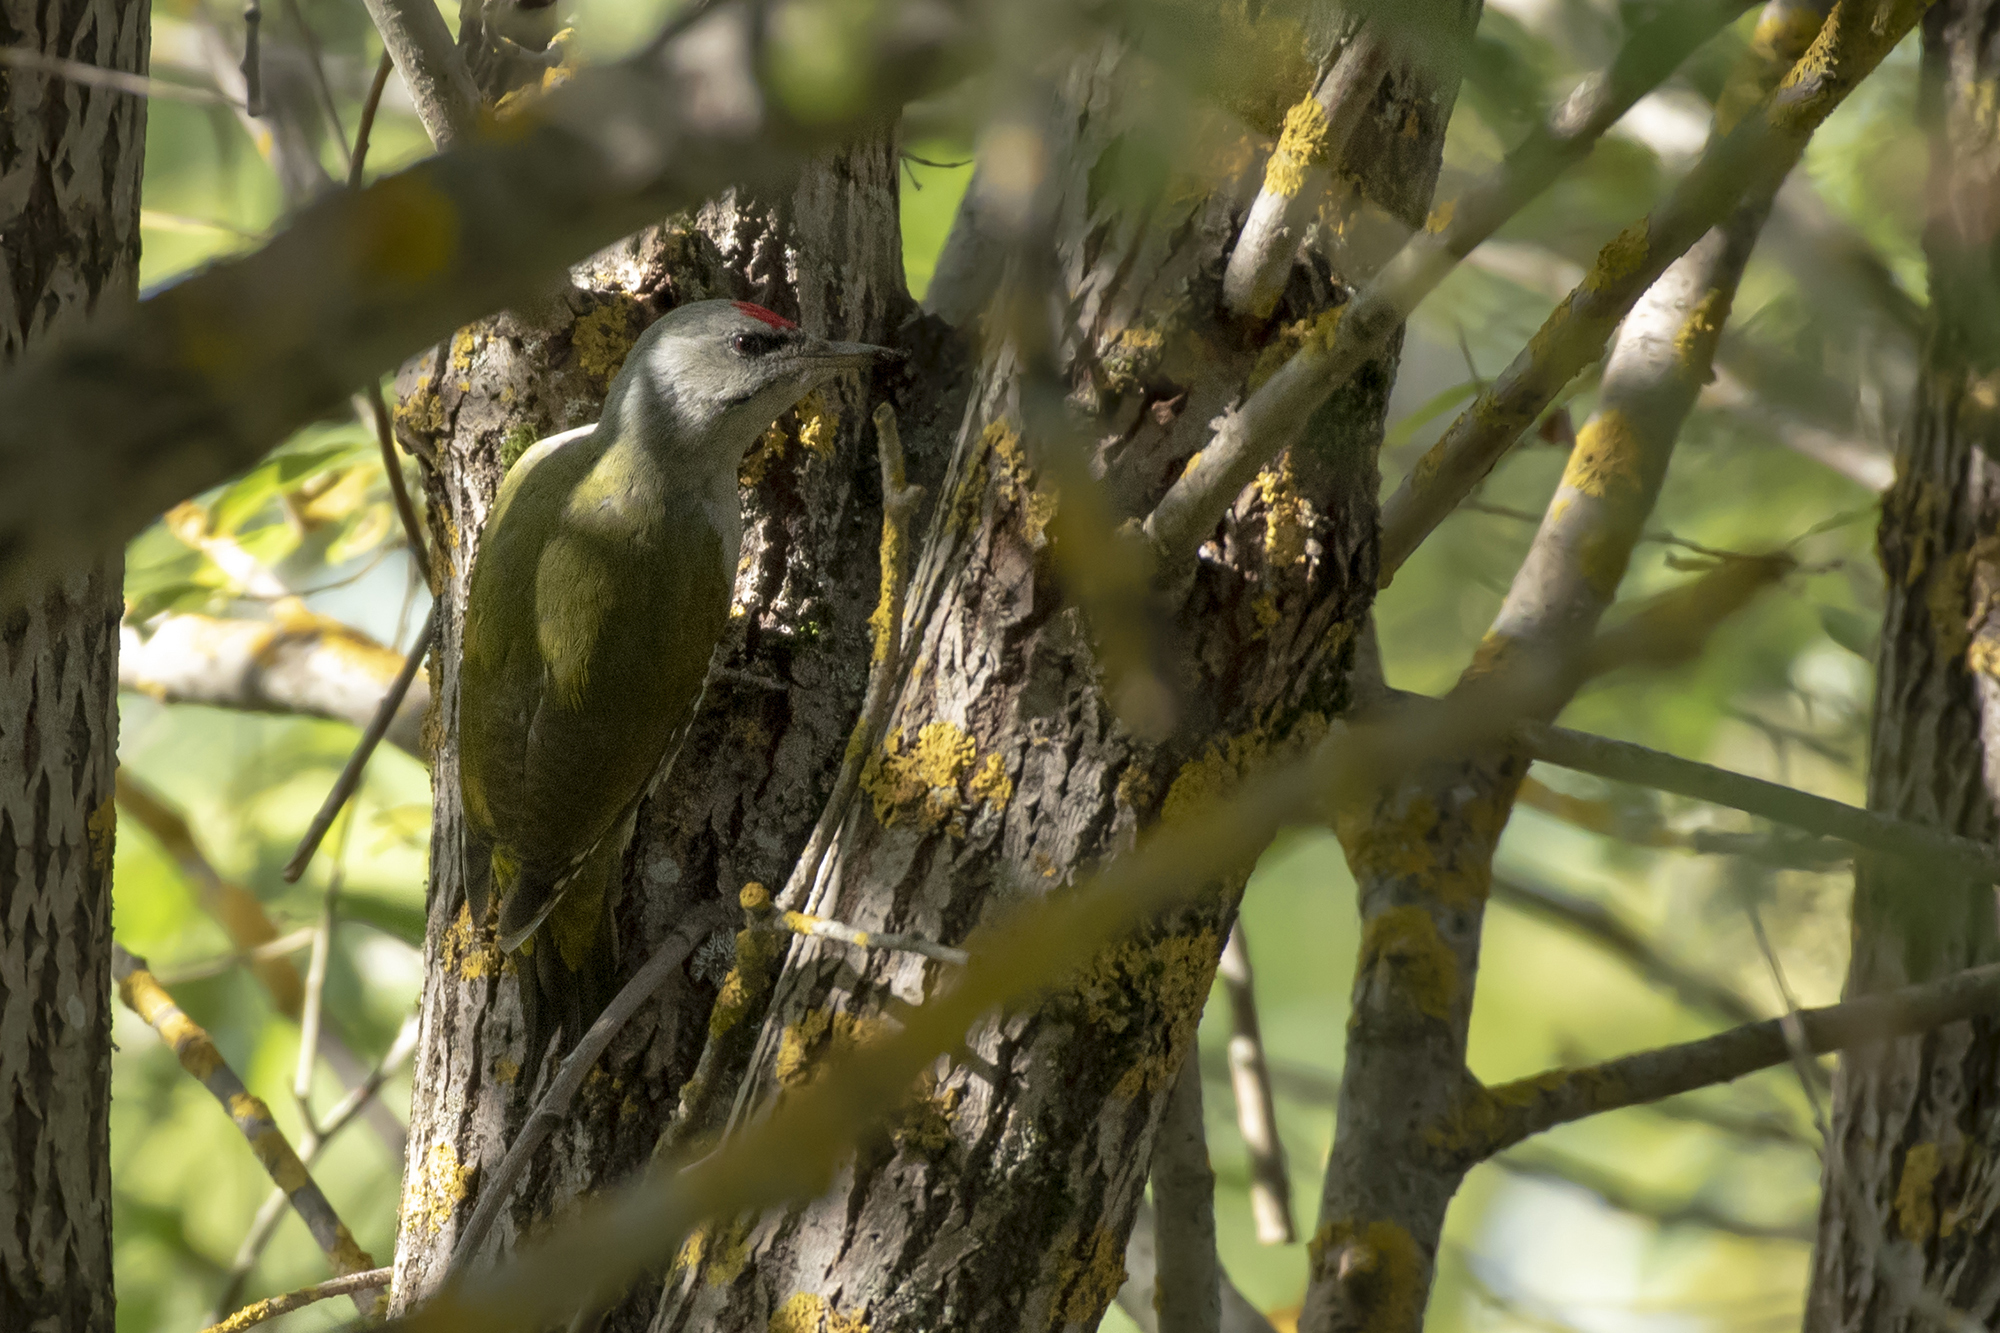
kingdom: Animalia
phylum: Chordata
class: Aves
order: Piciformes
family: Picidae
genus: Picus
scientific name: Picus canus
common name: Grey-headed woodpecker
